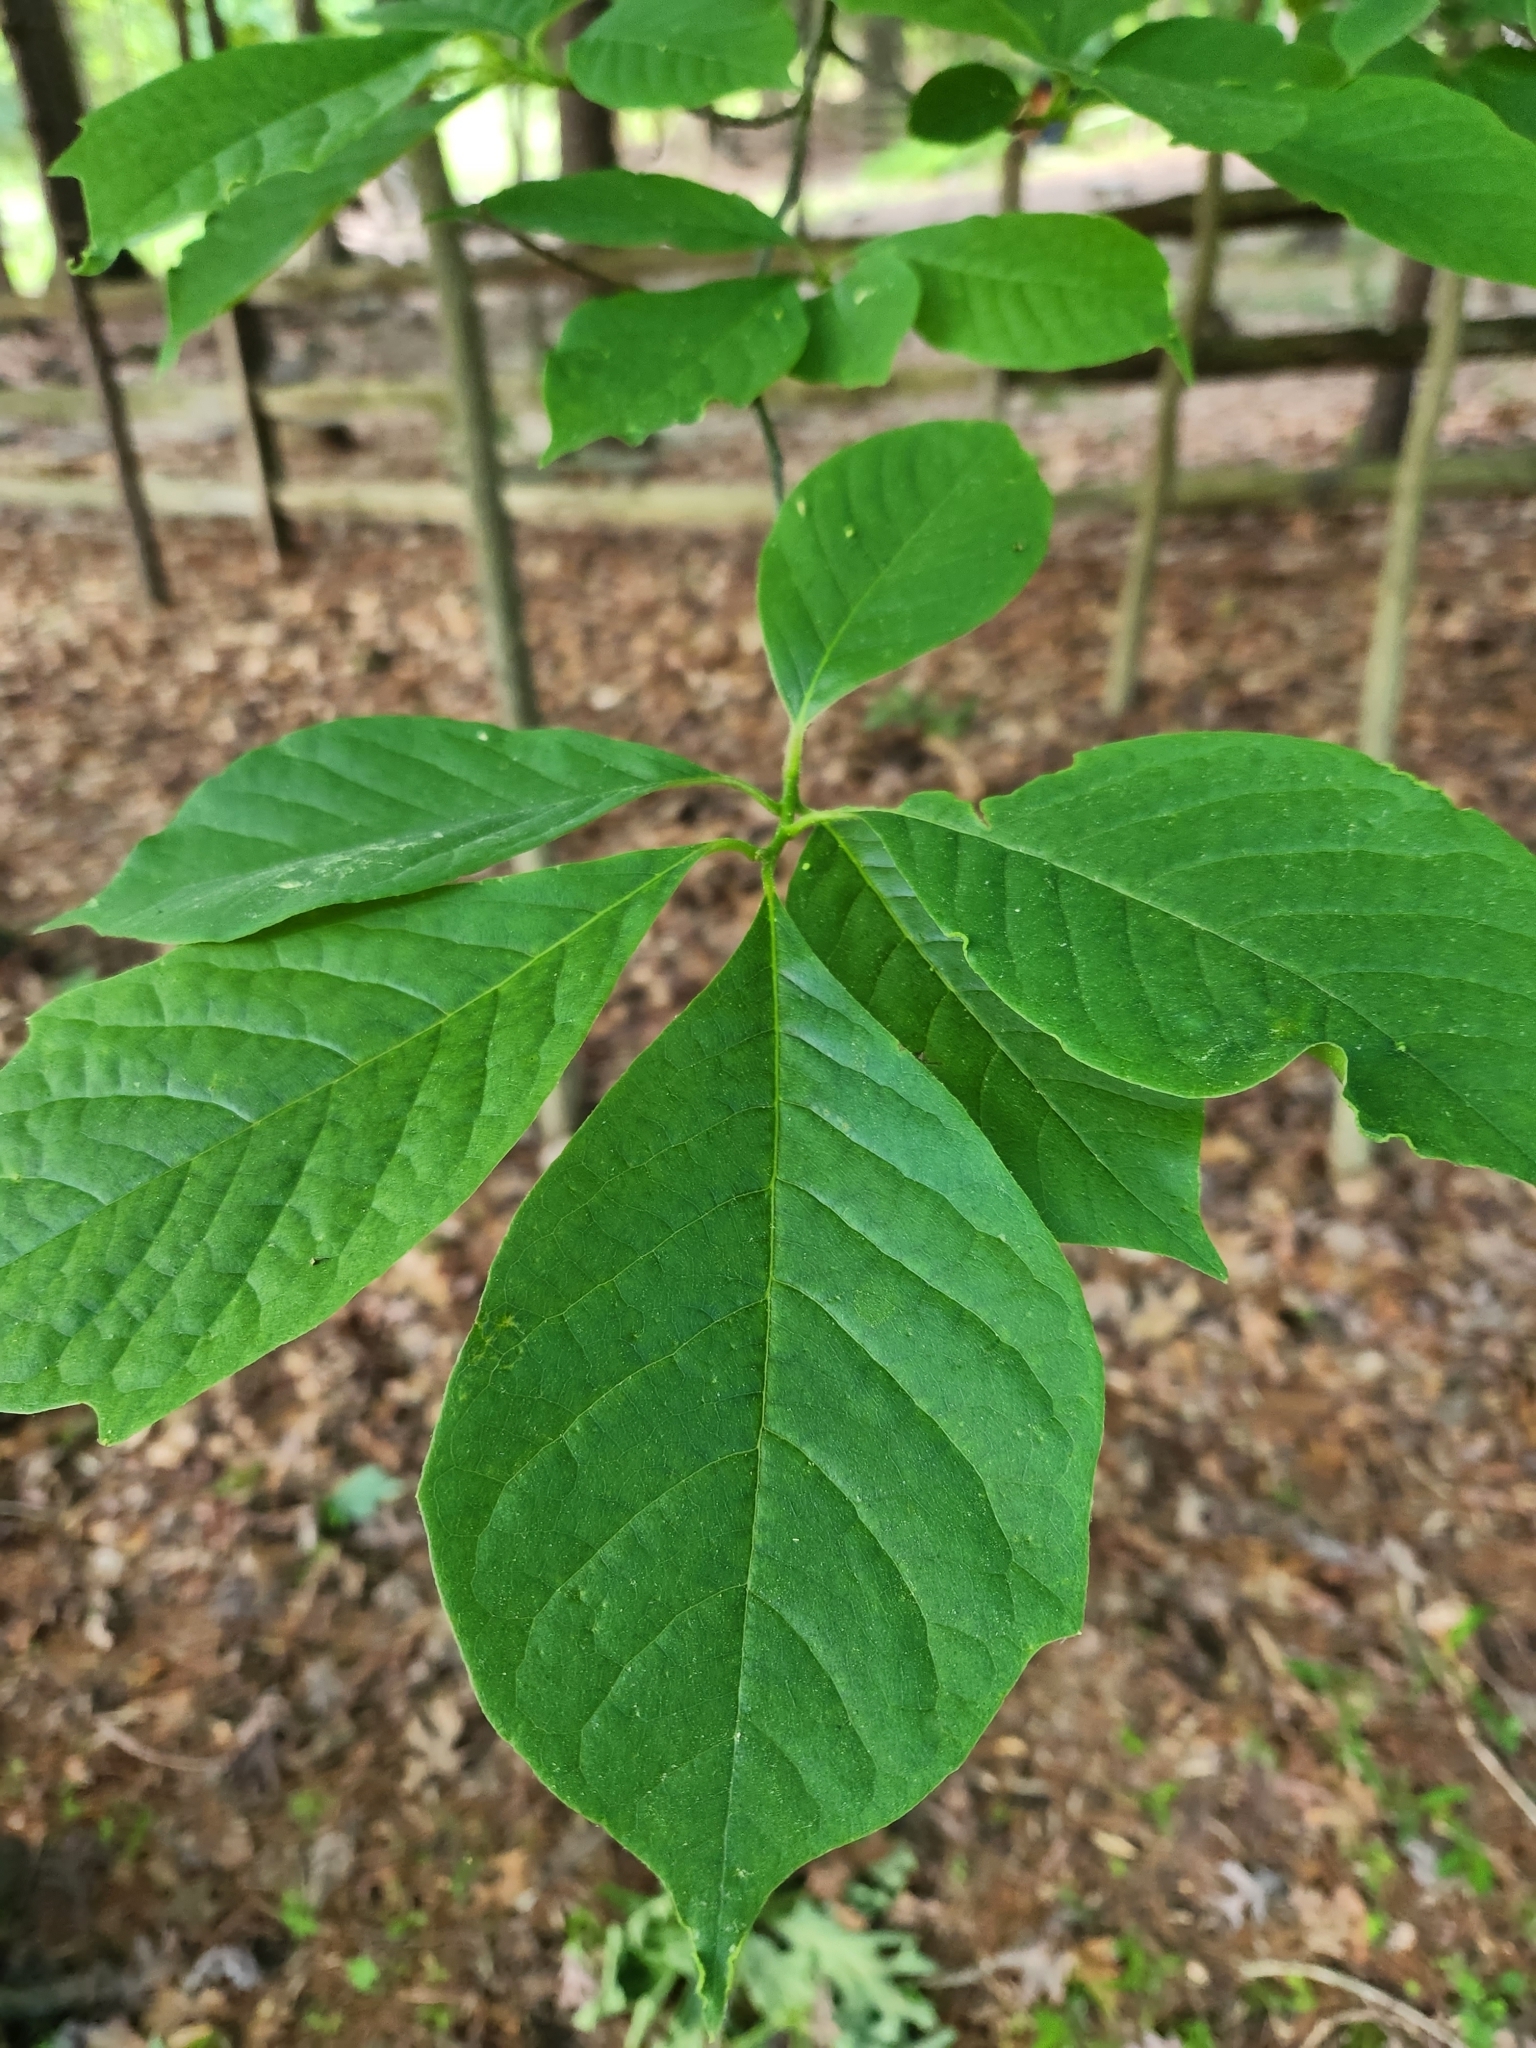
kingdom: Plantae
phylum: Tracheophyta
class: Magnoliopsida
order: Cornales
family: Nyssaceae
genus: Nyssa
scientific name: Nyssa sylvatica
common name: Black tupelo
